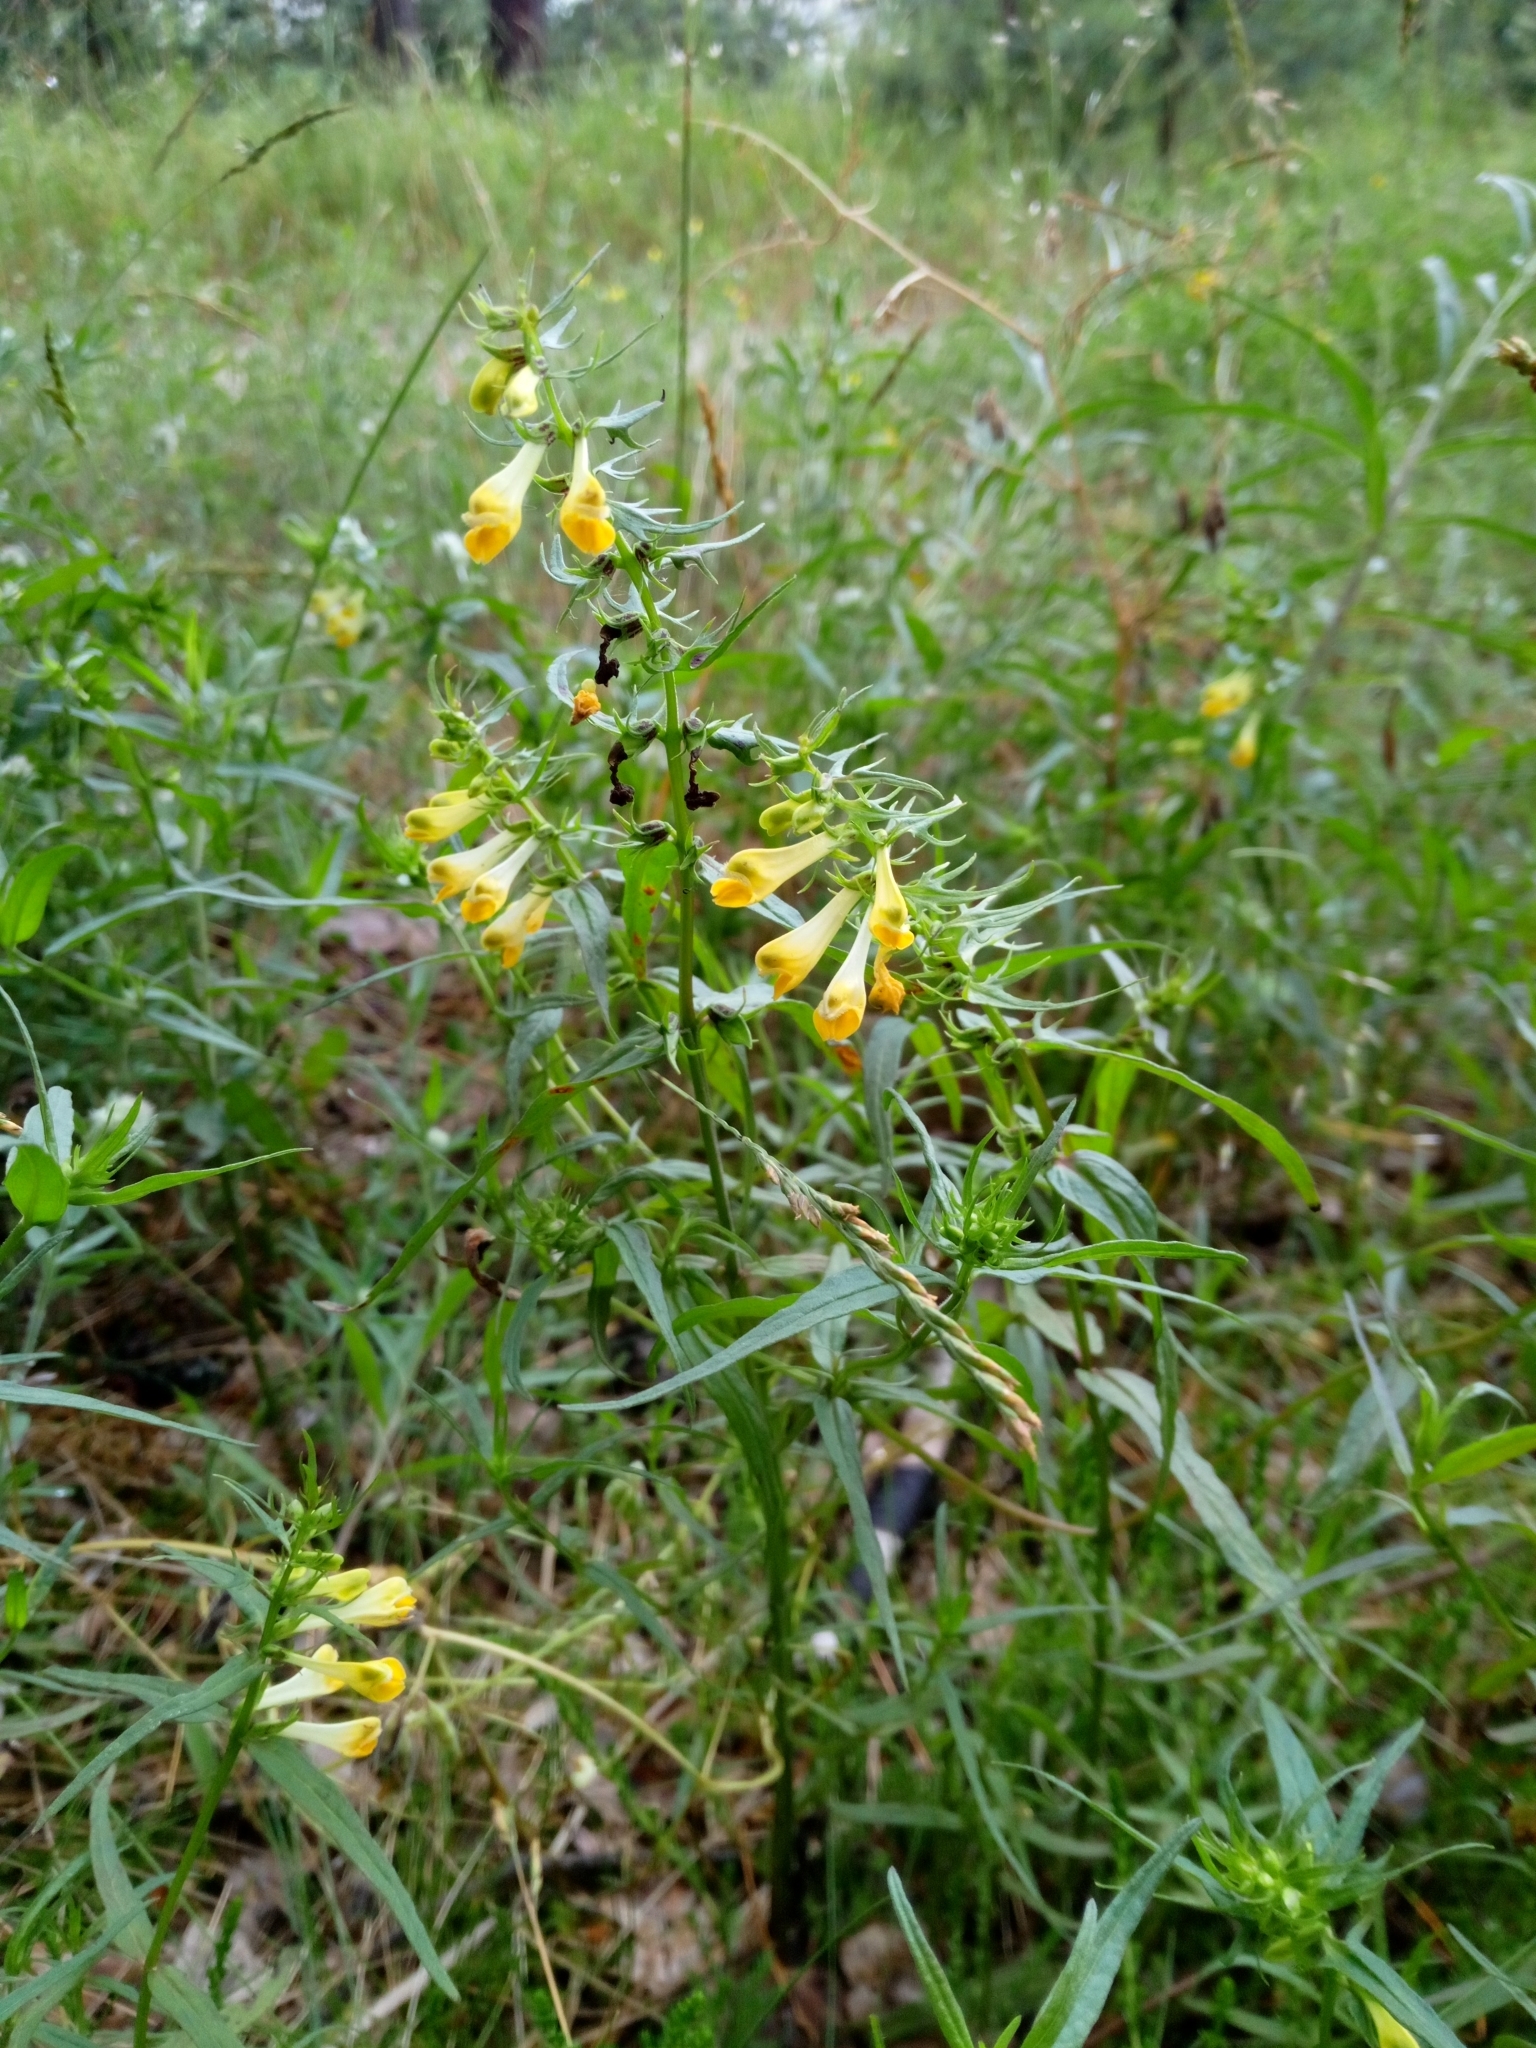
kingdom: Plantae
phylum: Tracheophyta
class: Magnoliopsida
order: Lamiales
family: Orobanchaceae
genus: Melampyrum
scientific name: Melampyrum pratense
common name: Common cow-wheat
